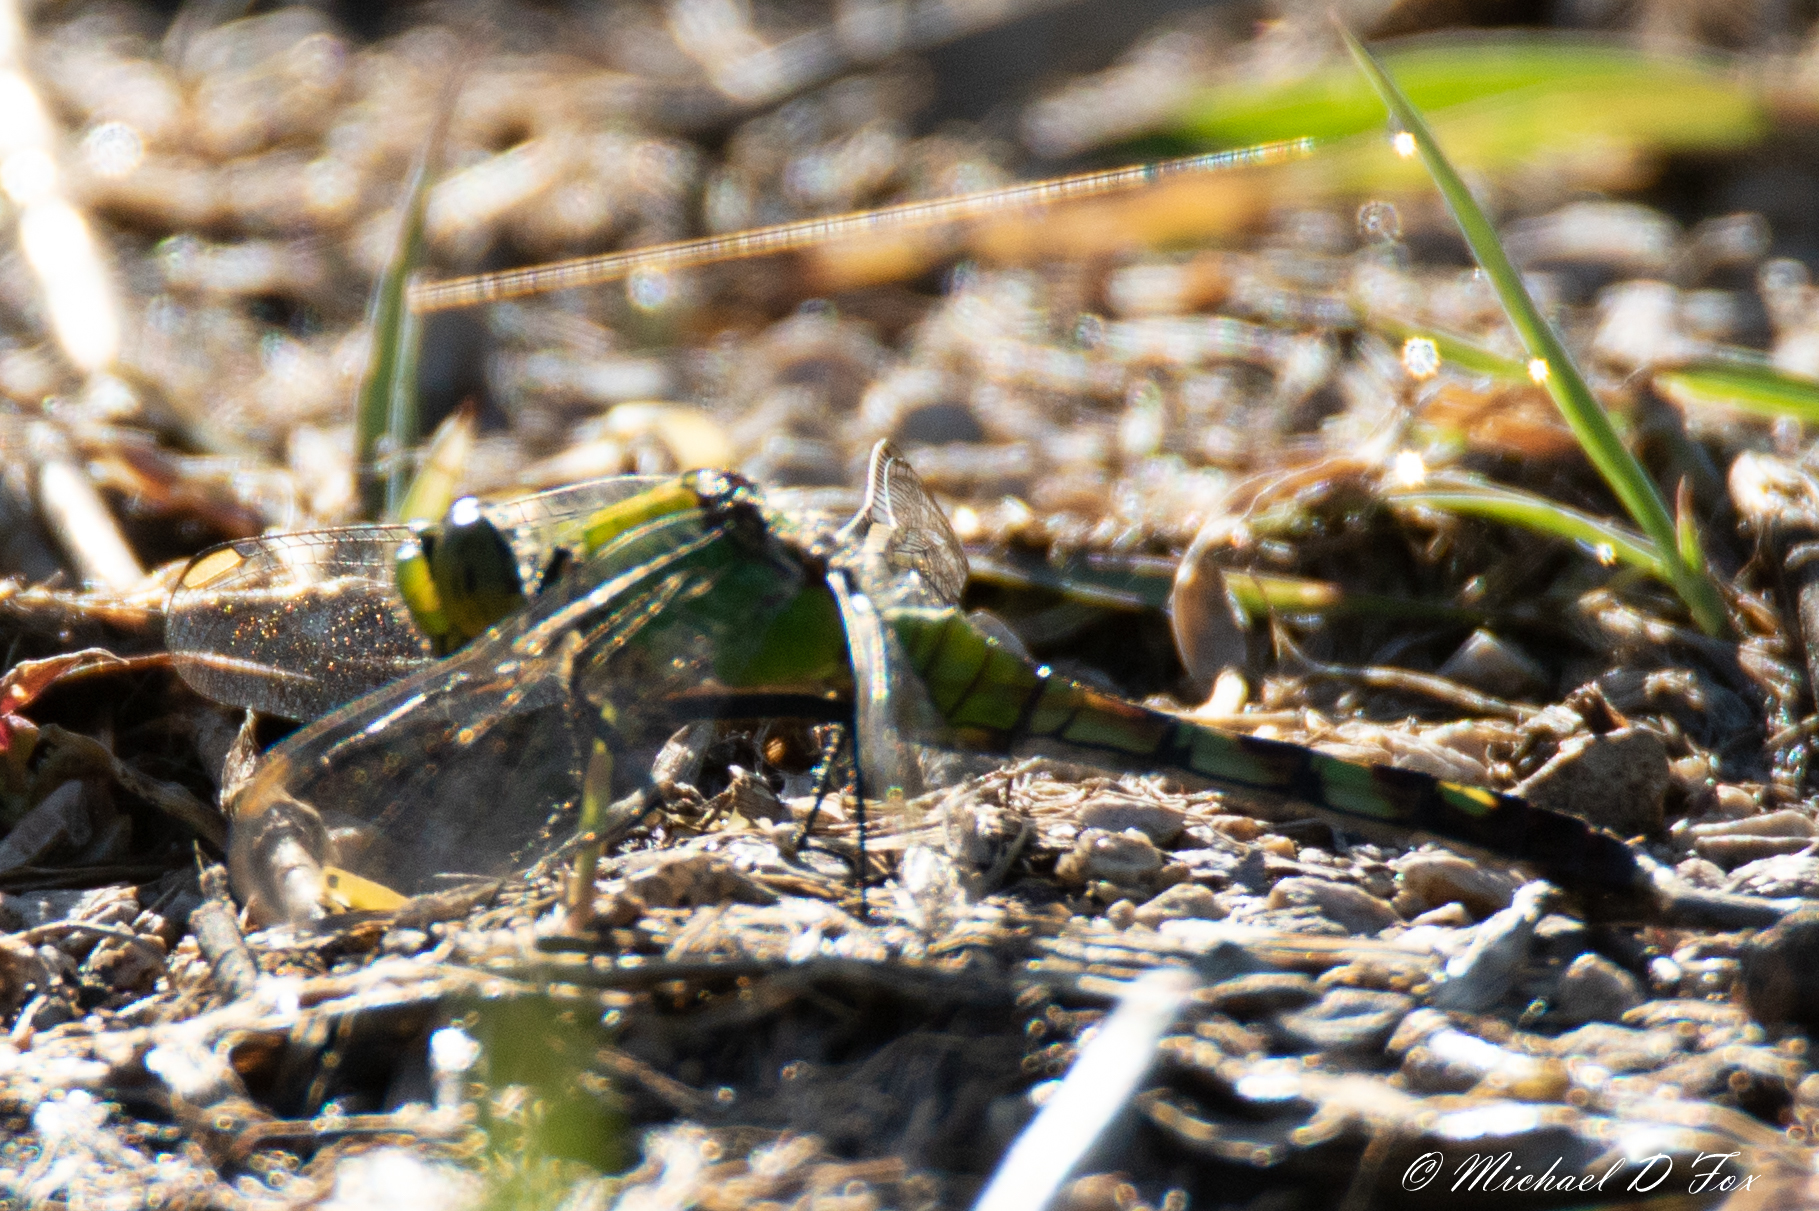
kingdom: Animalia
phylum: Arthropoda
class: Insecta
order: Odonata
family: Libellulidae
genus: Erythemis
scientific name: Erythemis simplicicollis
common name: Eastern pondhawk
